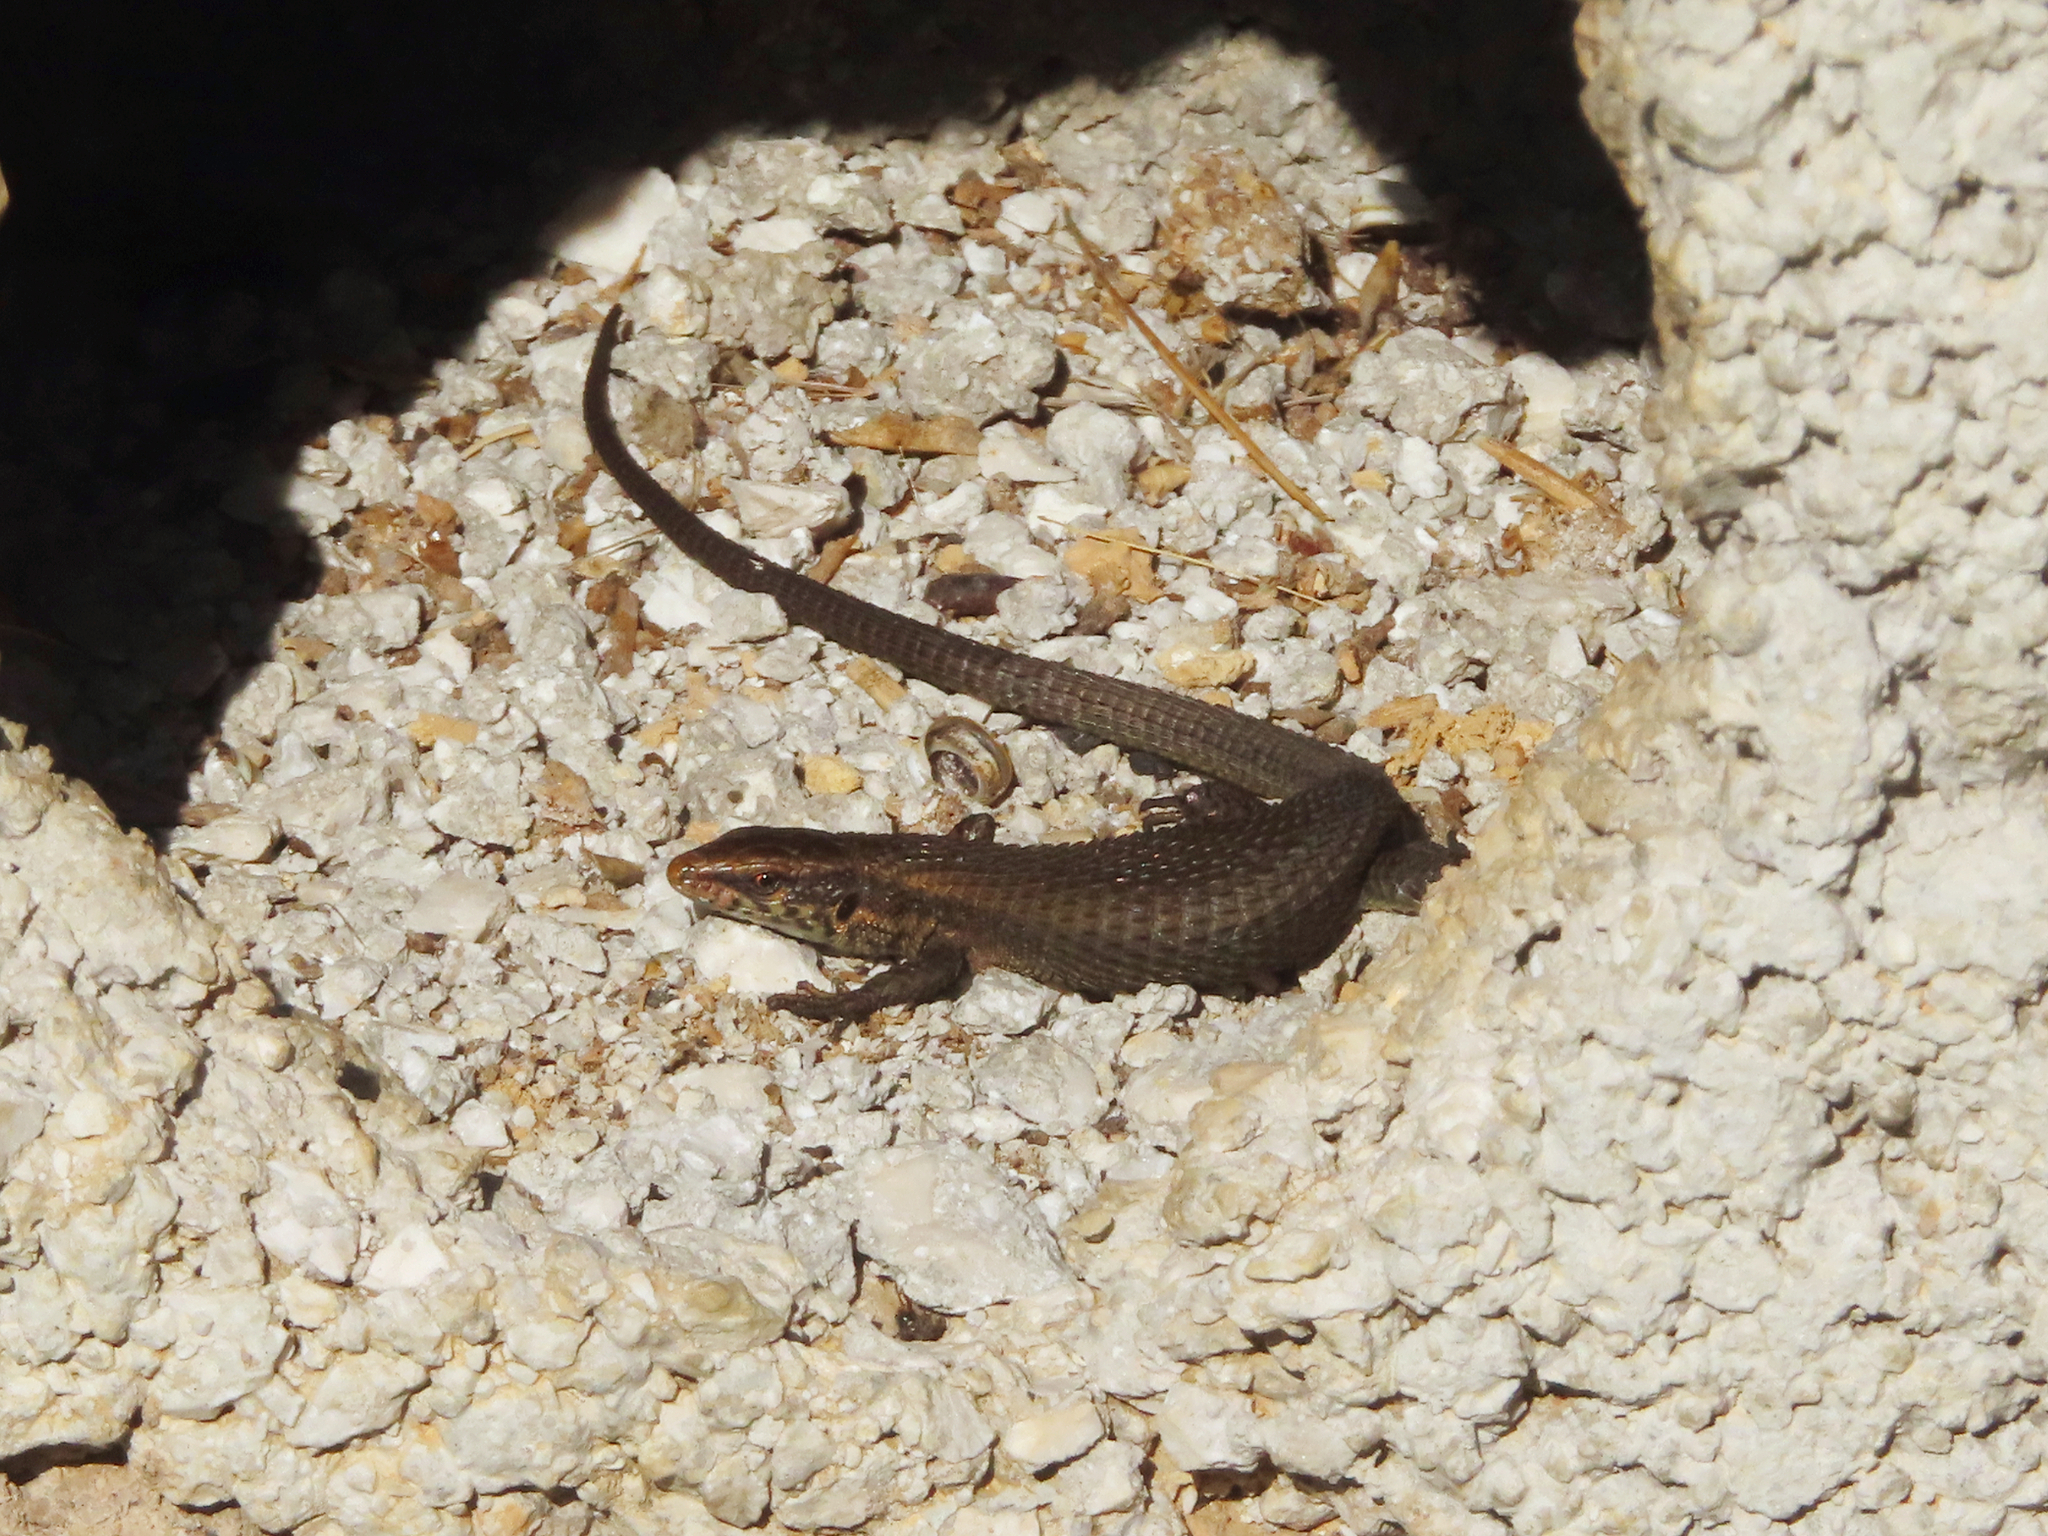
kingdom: Animalia
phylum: Chordata
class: Squamata
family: Lacertidae
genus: Algyroides
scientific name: Algyroides moreoticus
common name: Greek algyroides
